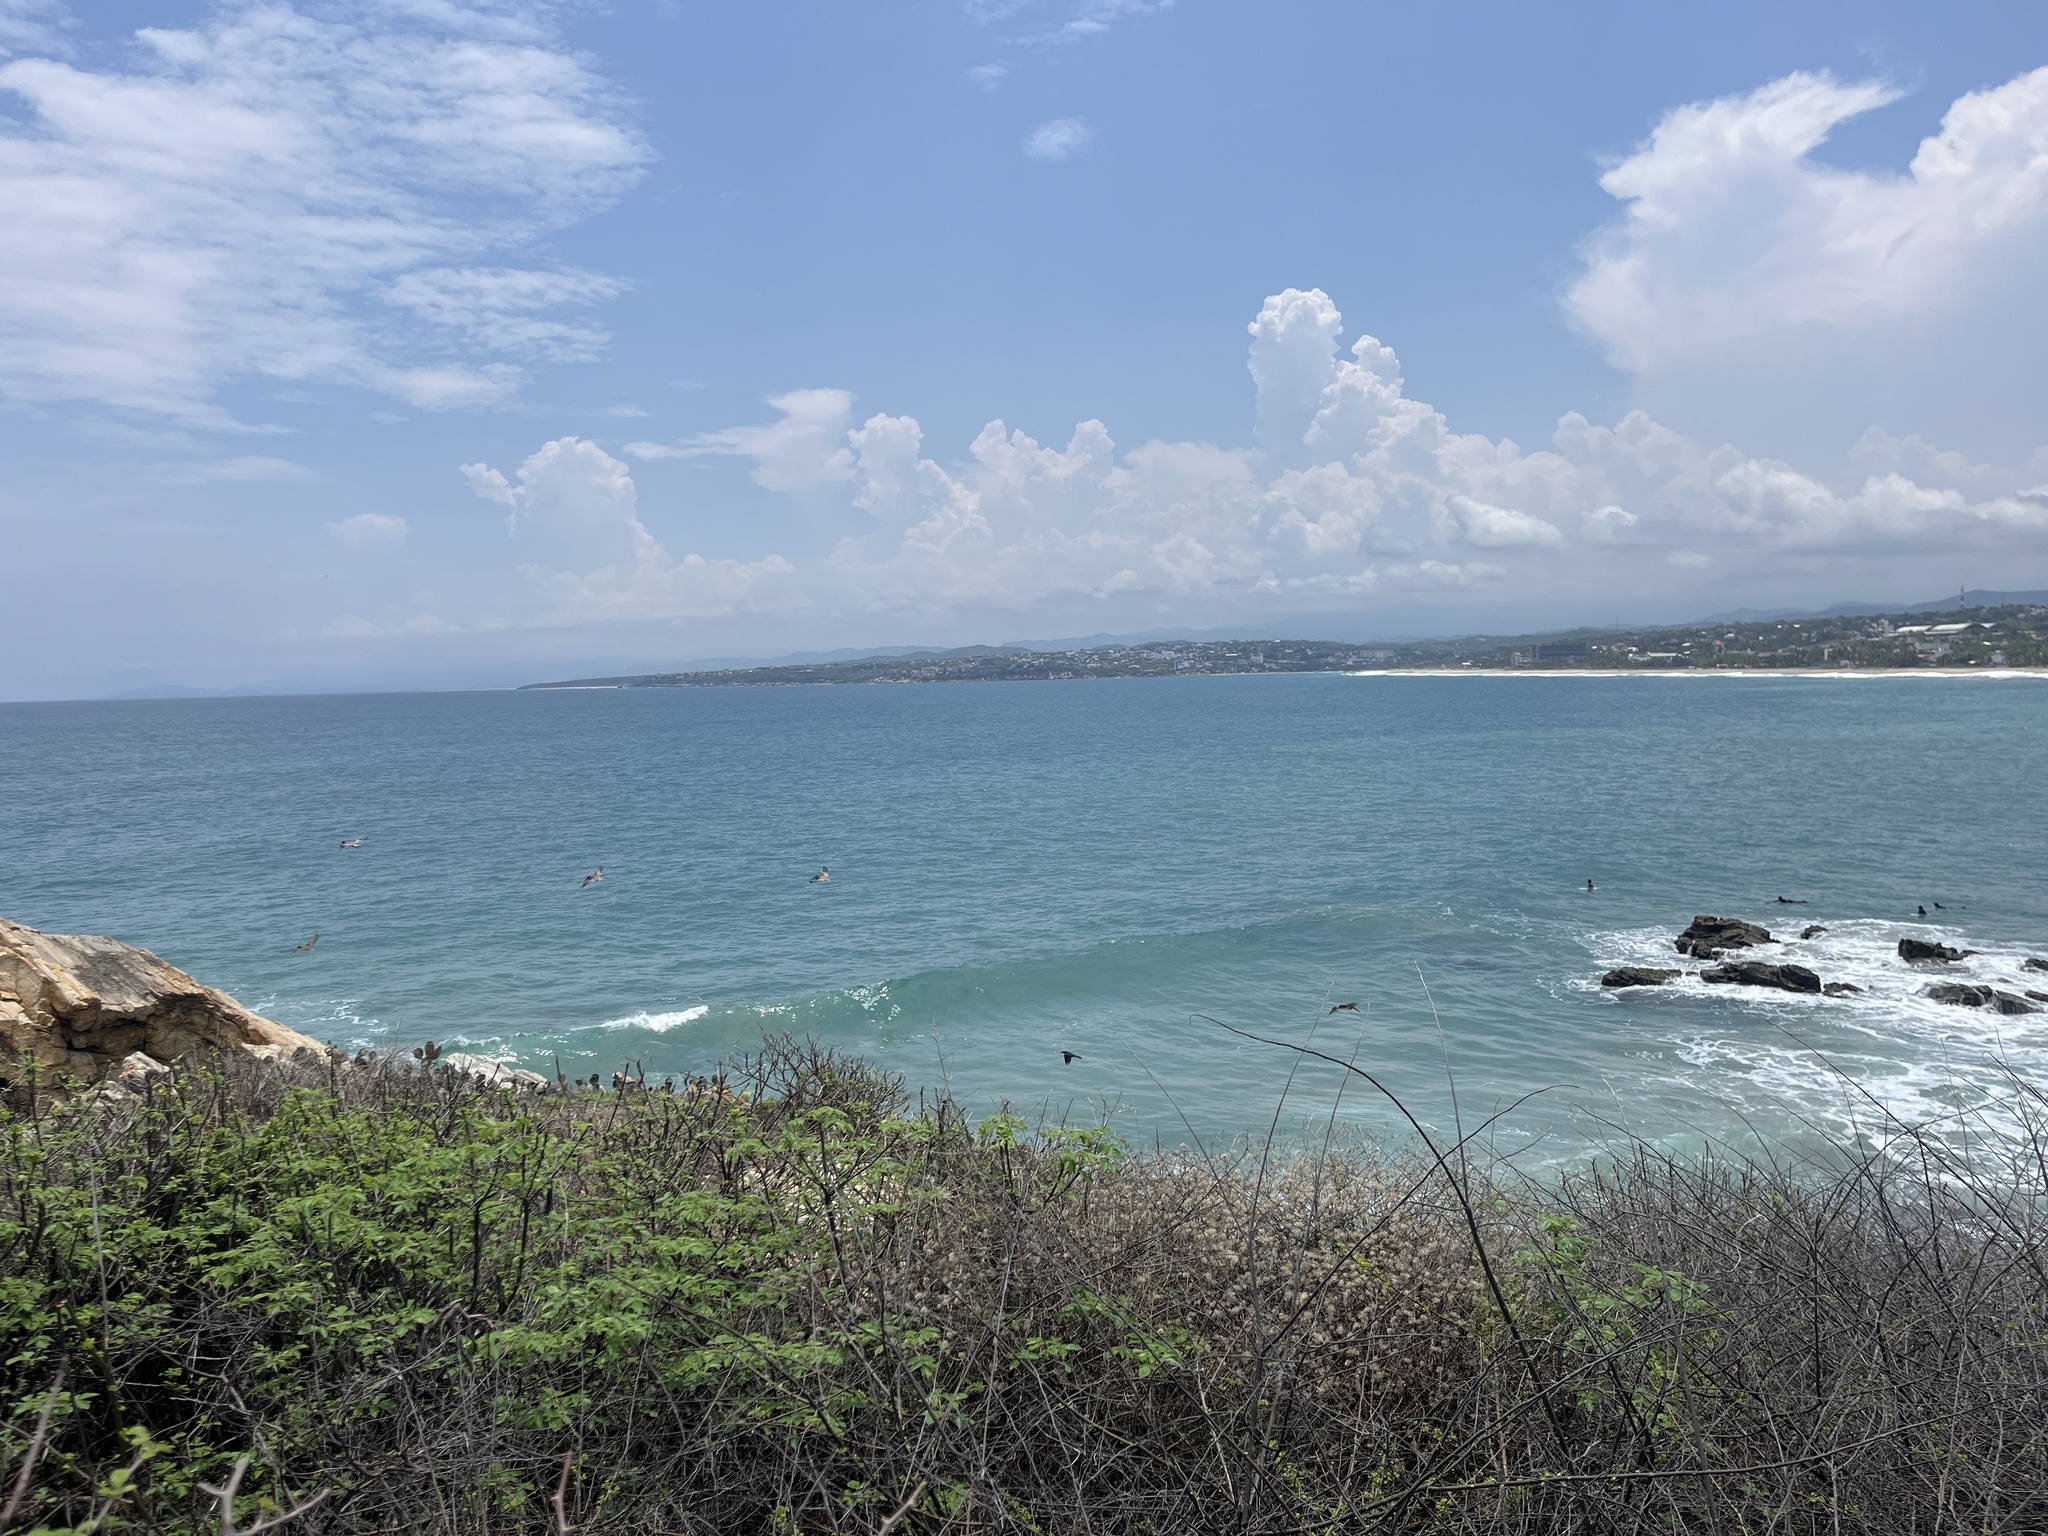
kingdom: Animalia
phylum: Chordata
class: Aves
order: Pelecaniformes
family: Pelecanidae
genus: Pelecanus
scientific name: Pelecanus occidentalis
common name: Brown pelican
